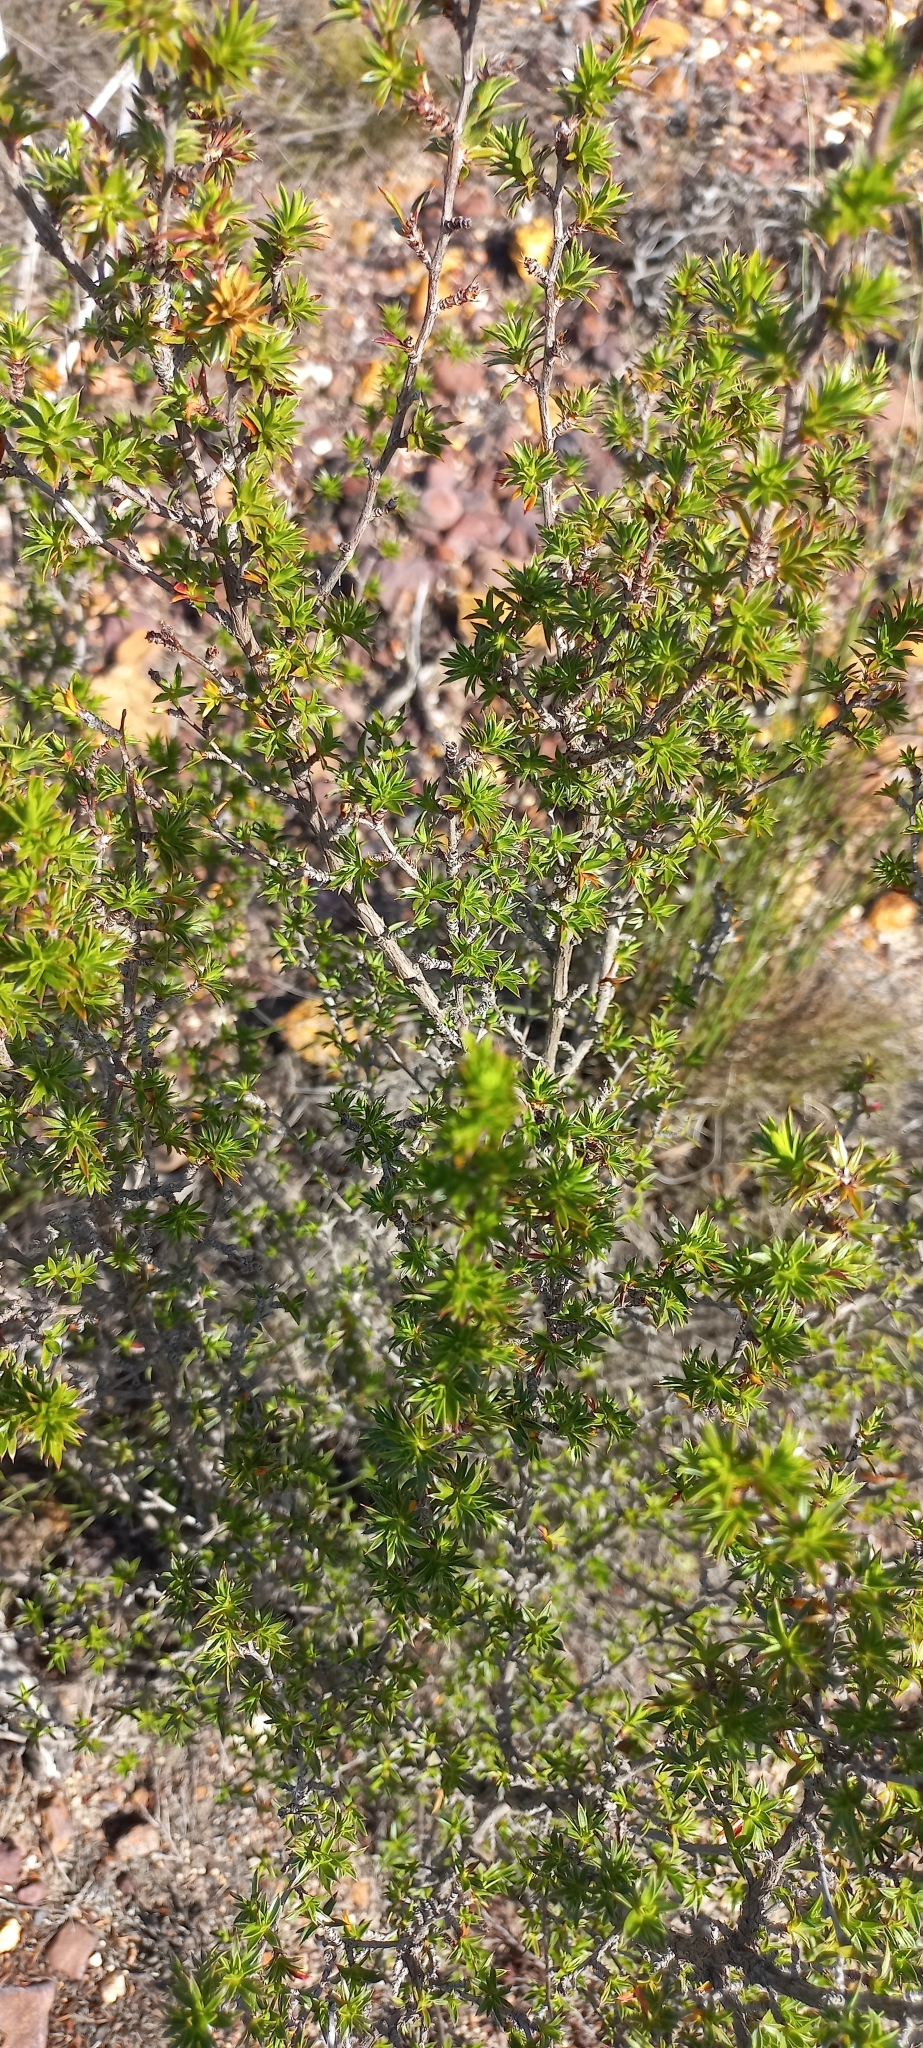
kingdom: Plantae
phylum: Tracheophyta
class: Magnoliopsida
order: Rosales
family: Rosaceae
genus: Cliffortia
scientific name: Cliffortia ferricola
